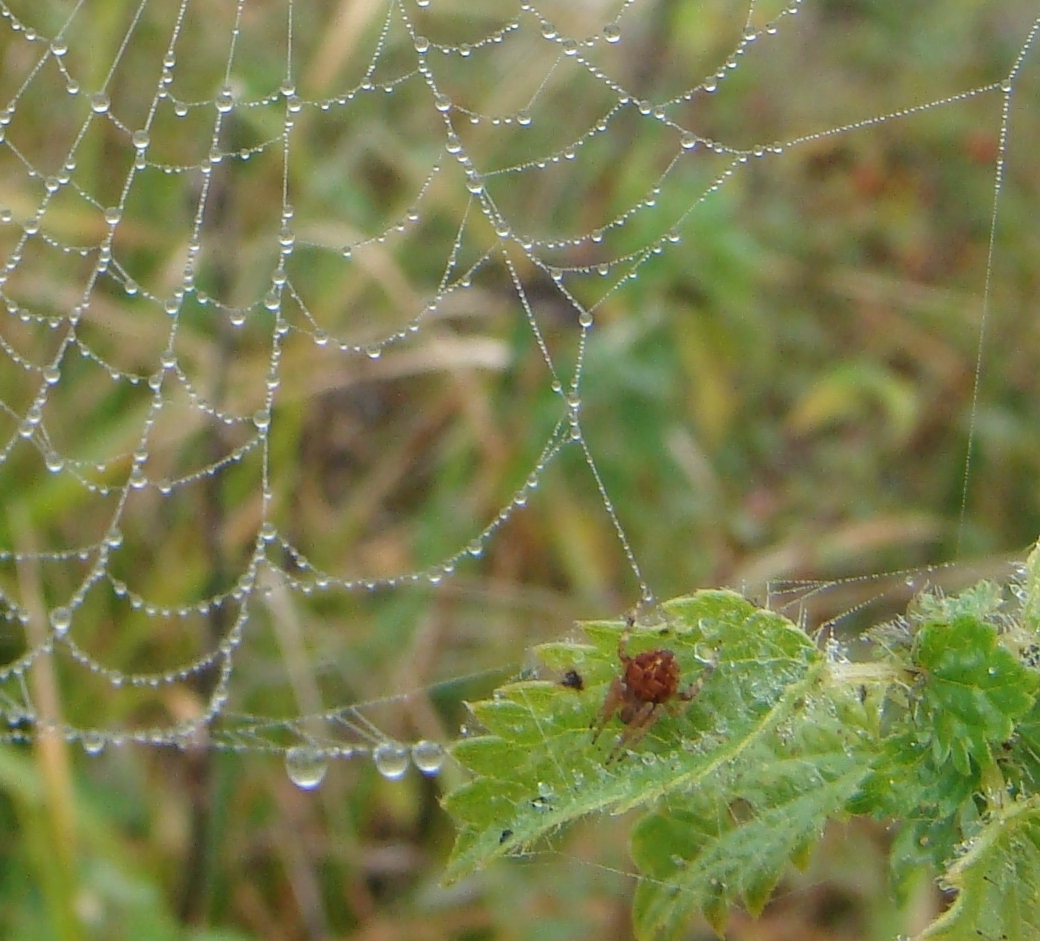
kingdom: Animalia
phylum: Arthropoda
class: Arachnida
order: Araneae
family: Araneidae
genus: Agalenatea
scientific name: Agalenatea redii
